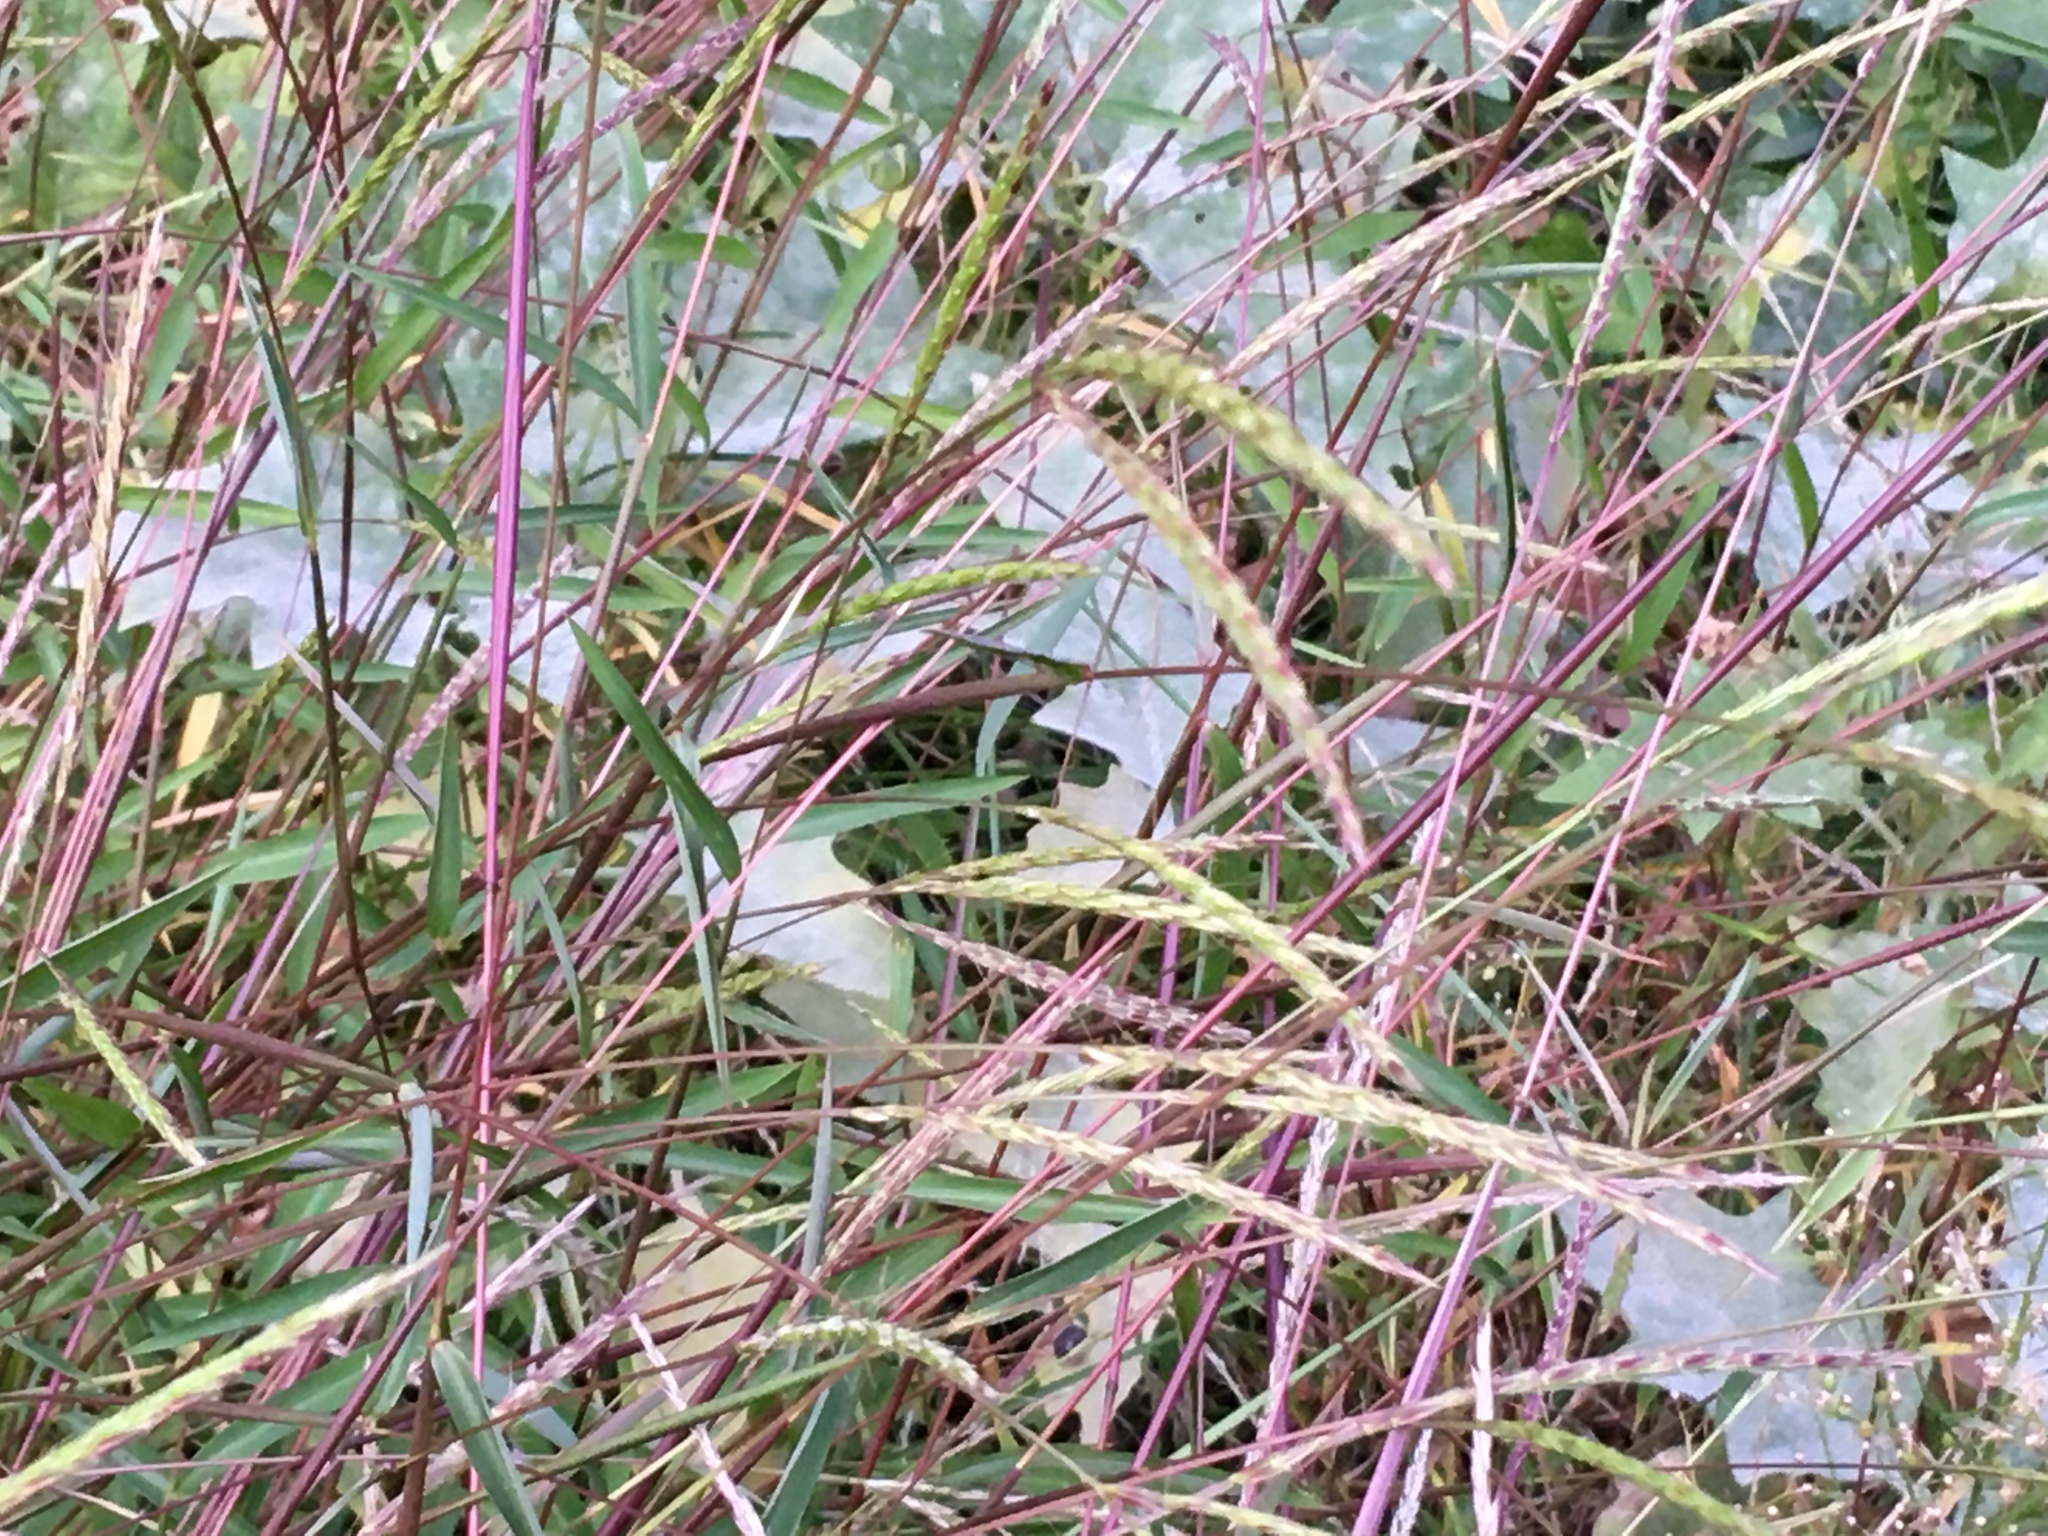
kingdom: Plantae
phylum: Tracheophyta
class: Liliopsida
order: Poales
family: Poaceae
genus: Microstegium
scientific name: Microstegium vimineum
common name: Japanese stiltgrass
